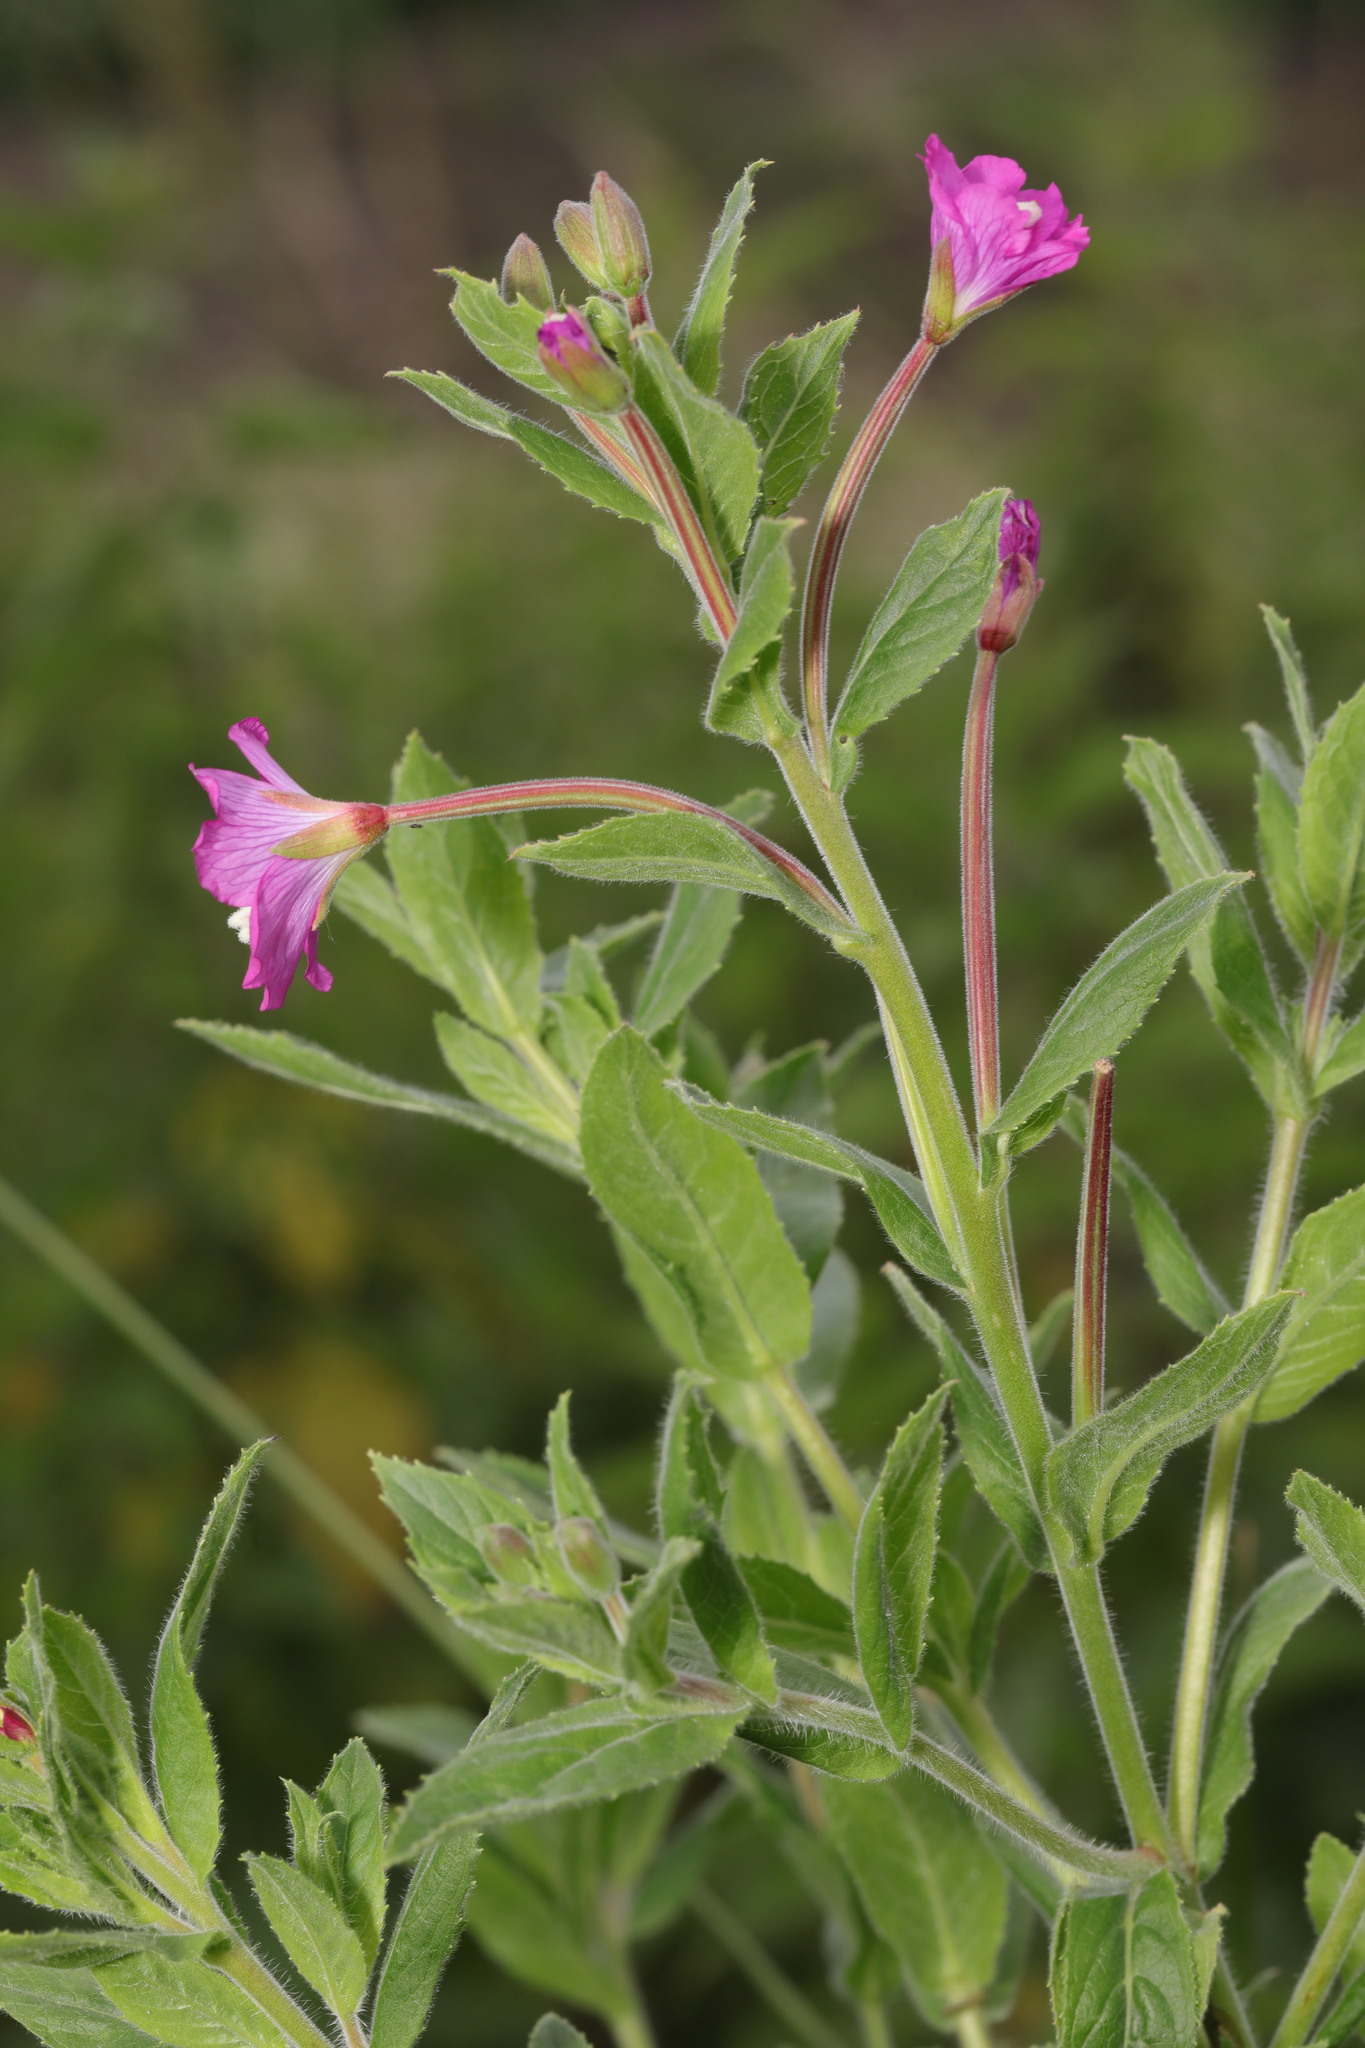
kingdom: Plantae
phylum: Tracheophyta
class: Magnoliopsida
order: Myrtales
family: Onagraceae
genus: Epilobium
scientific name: Epilobium hirsutum
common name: Great willowherb
